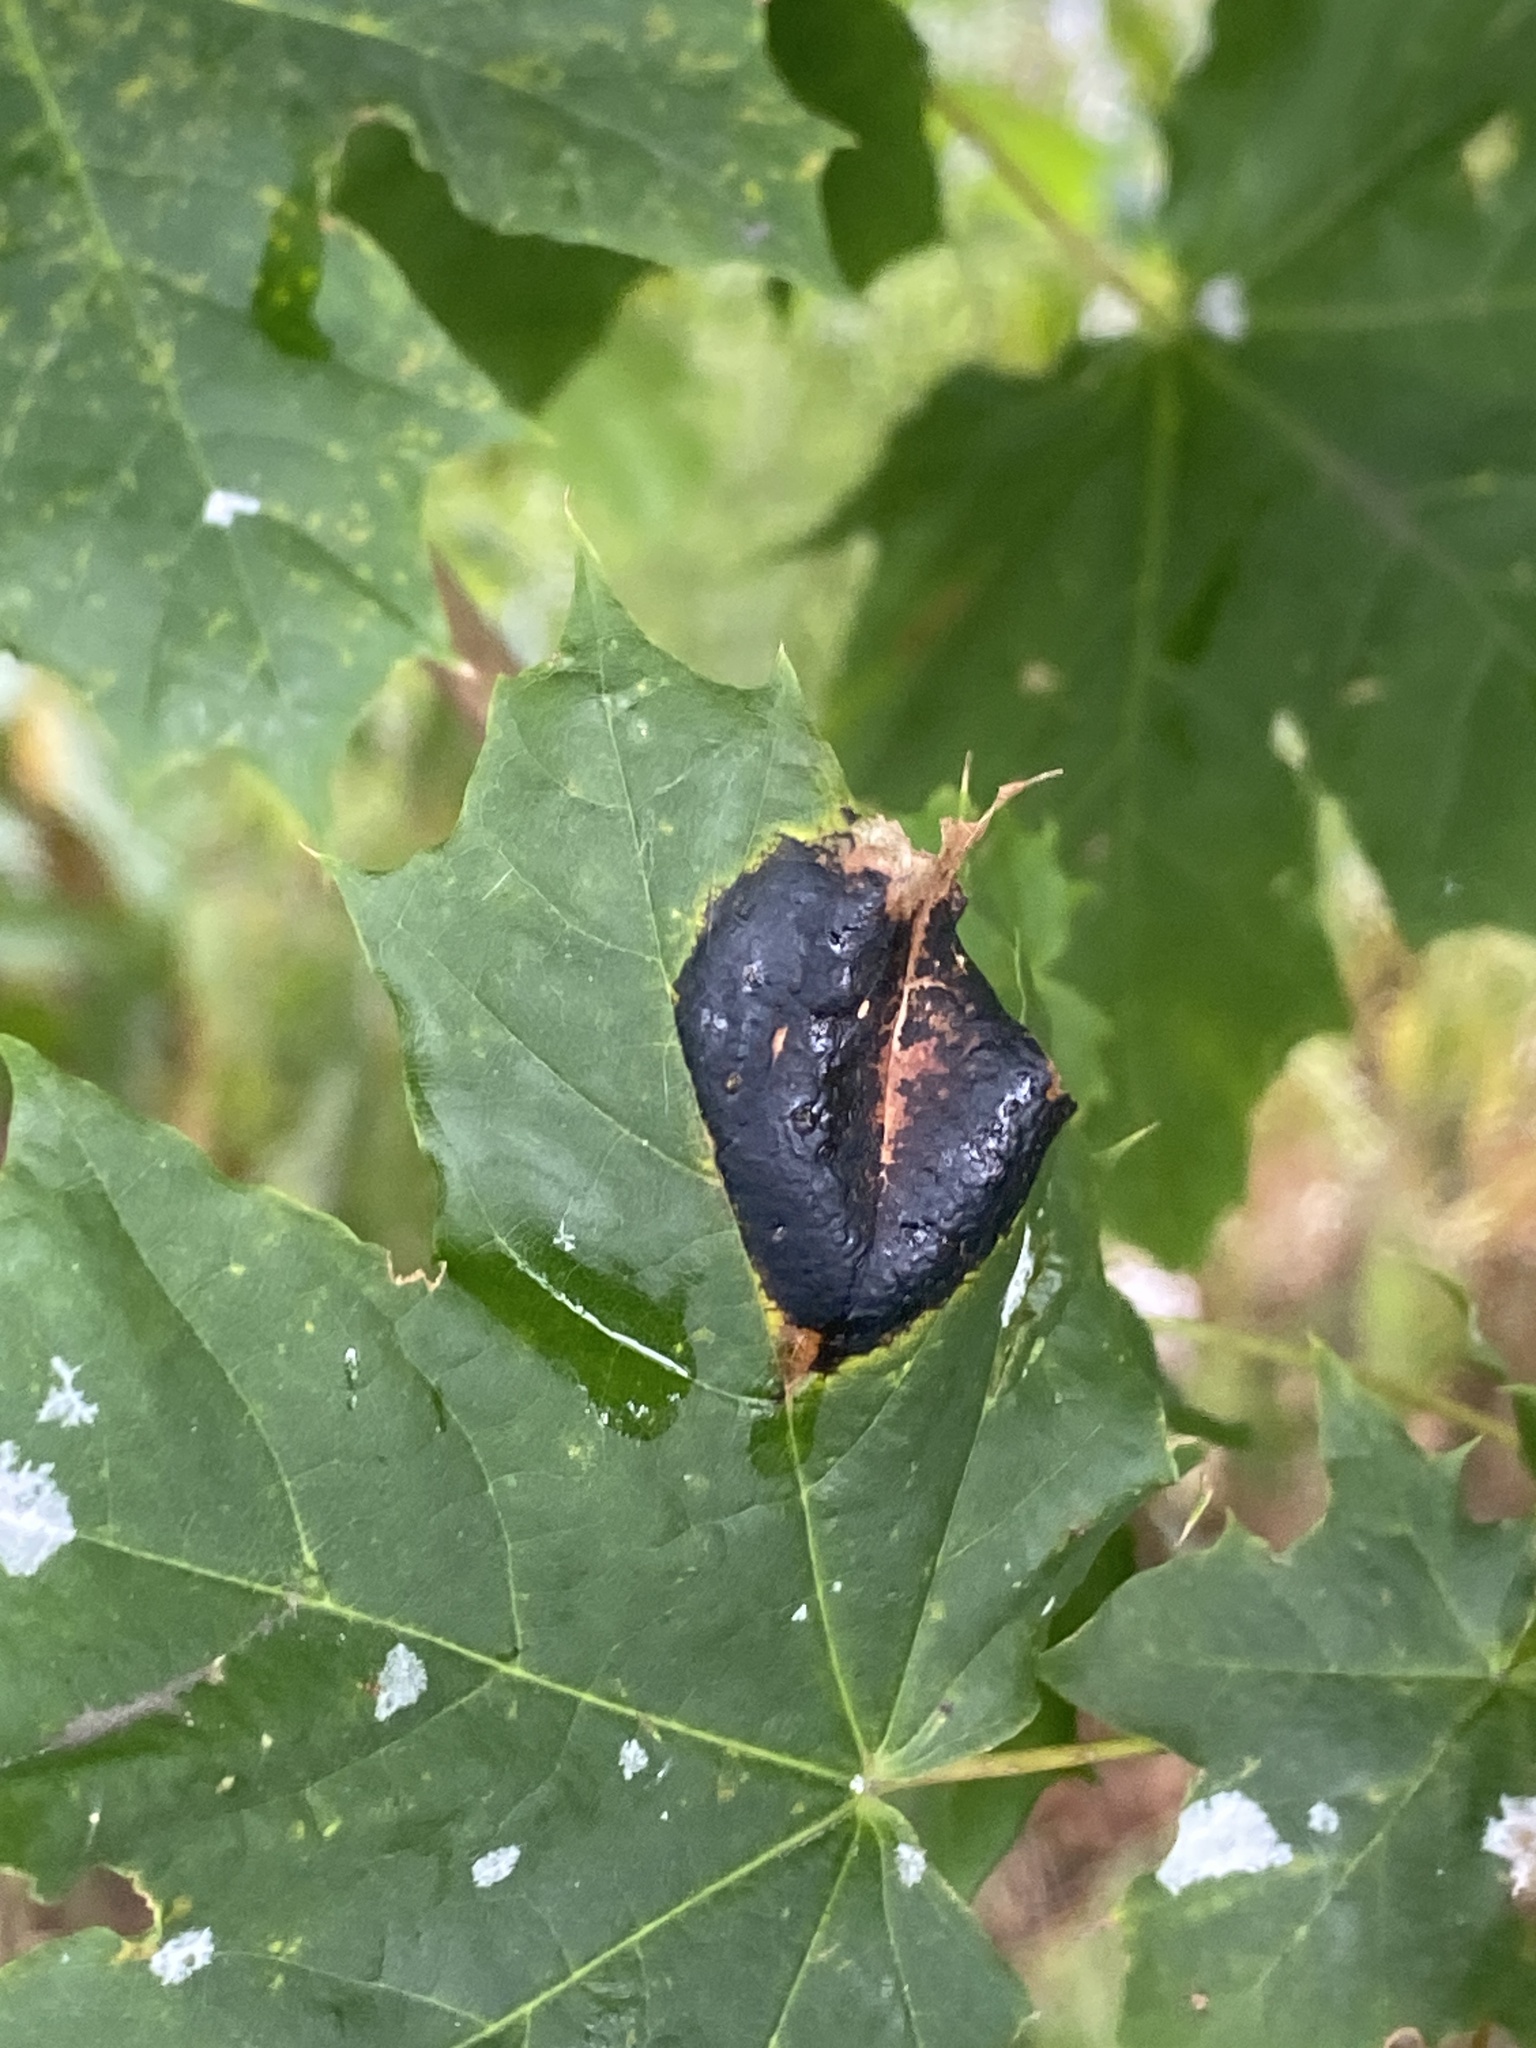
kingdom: Fungi
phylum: Ascomycota
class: Leotiomycetes
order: Rhytismatales
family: Rhytismataceae
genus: Rhytisma
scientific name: Rhytisma acerinum
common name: European tar spot
